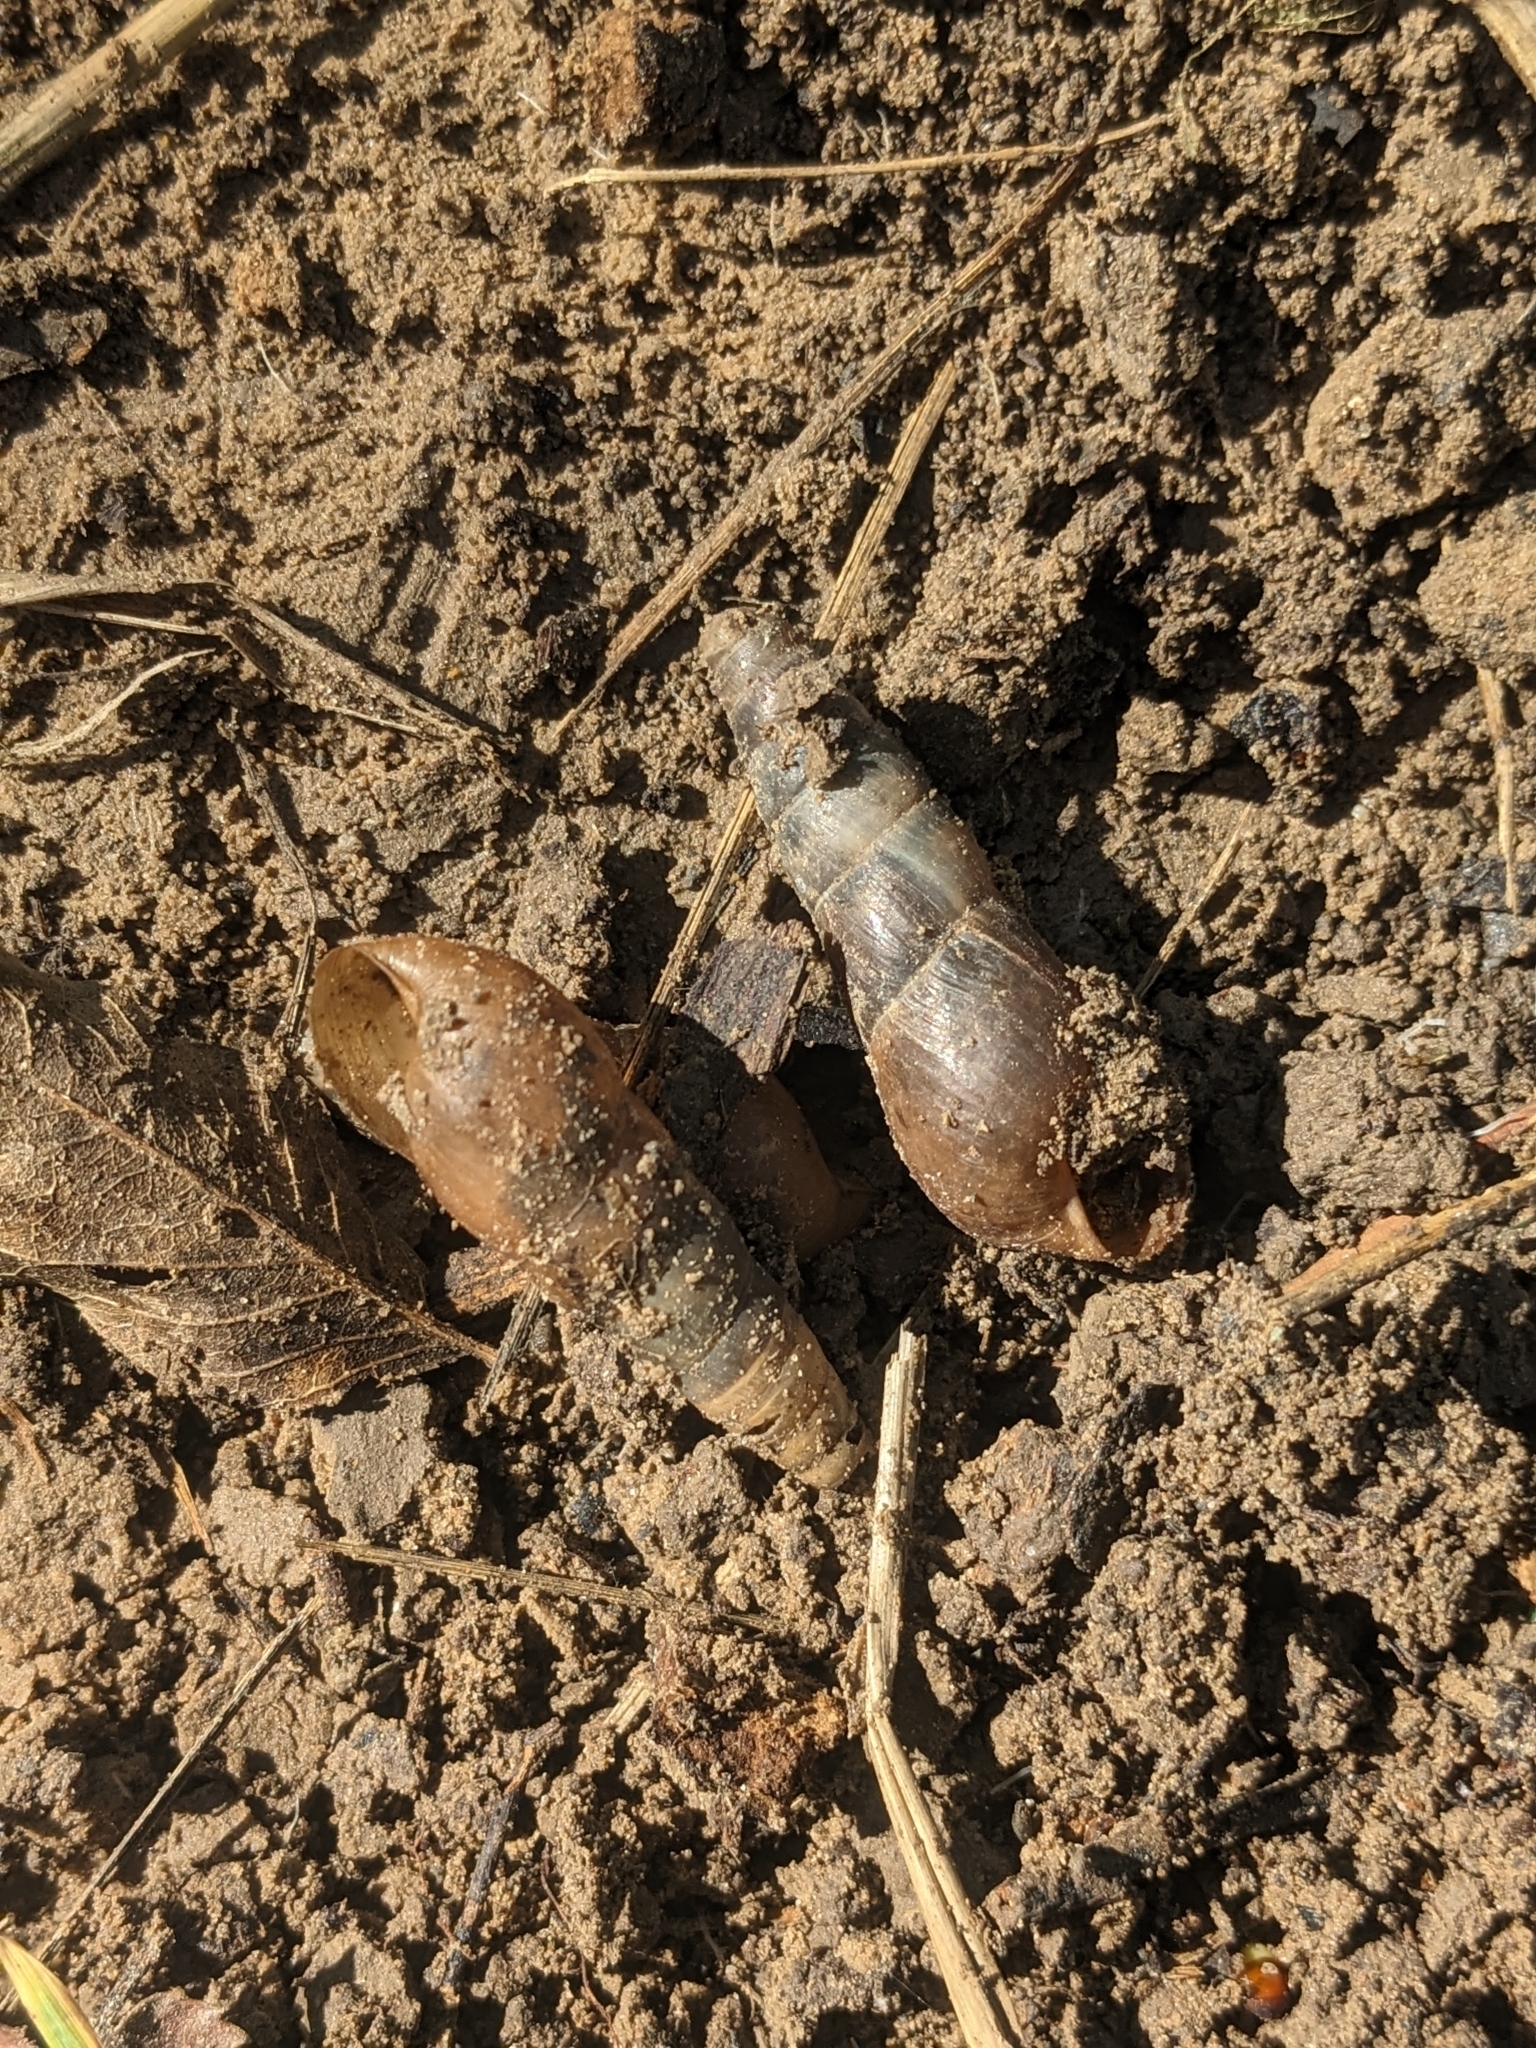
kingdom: Animalia
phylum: Mollusca
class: Gastropoda
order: Stylommatophora
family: Achatinidae
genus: Rumina
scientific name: Rumina decollata
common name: Decollate snail
